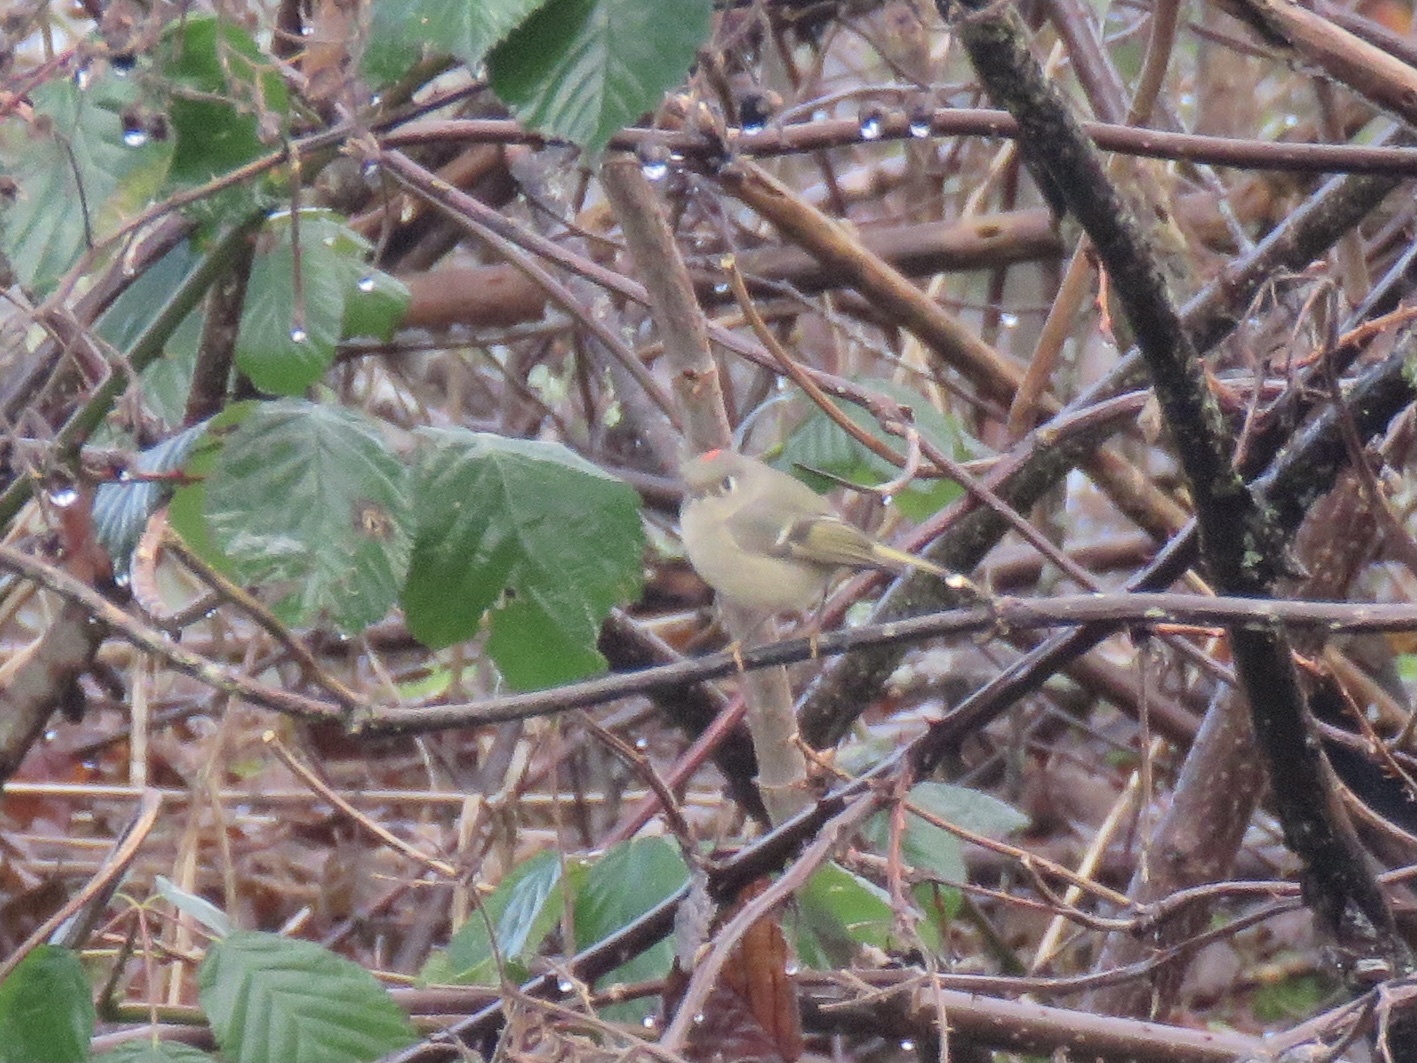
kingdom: Animalia
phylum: Chordata
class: Aves
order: Passeriformes
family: Regulidae
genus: Regulus
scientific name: Regulus calendula
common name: Ruby-crowned kinglet
